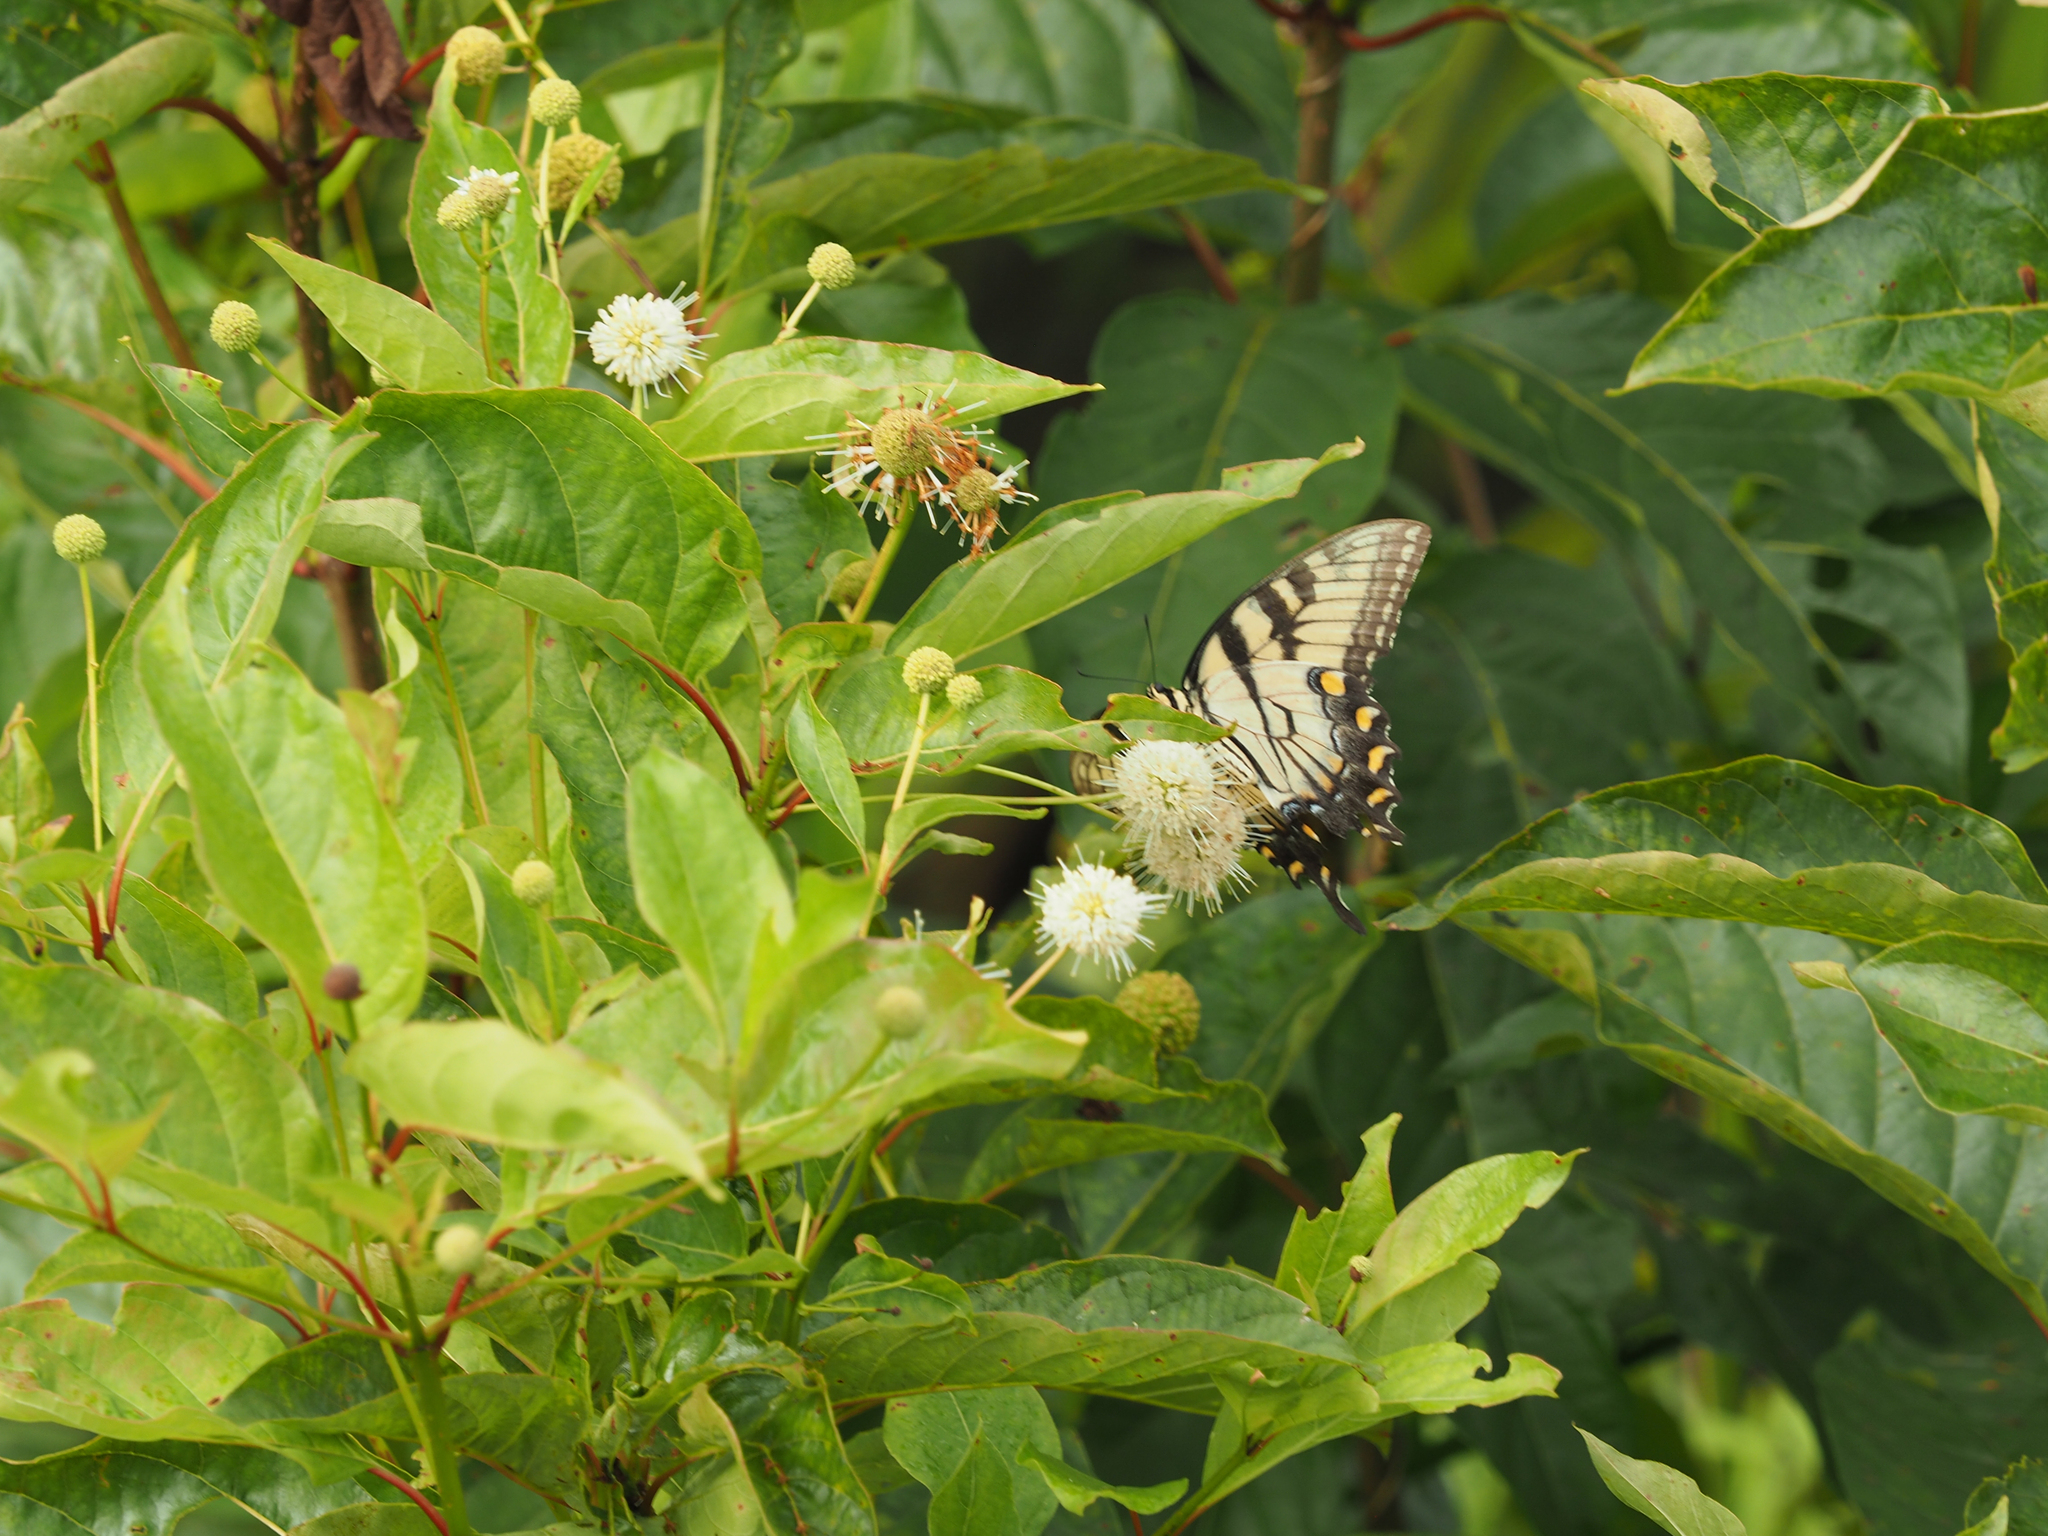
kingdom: Plantae
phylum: Tracheophyta
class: Magnoliopsida
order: Gentianales
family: Rubiaceae
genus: Cephalanthus
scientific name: Cephalanthus occidentalis
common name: Button-willow
